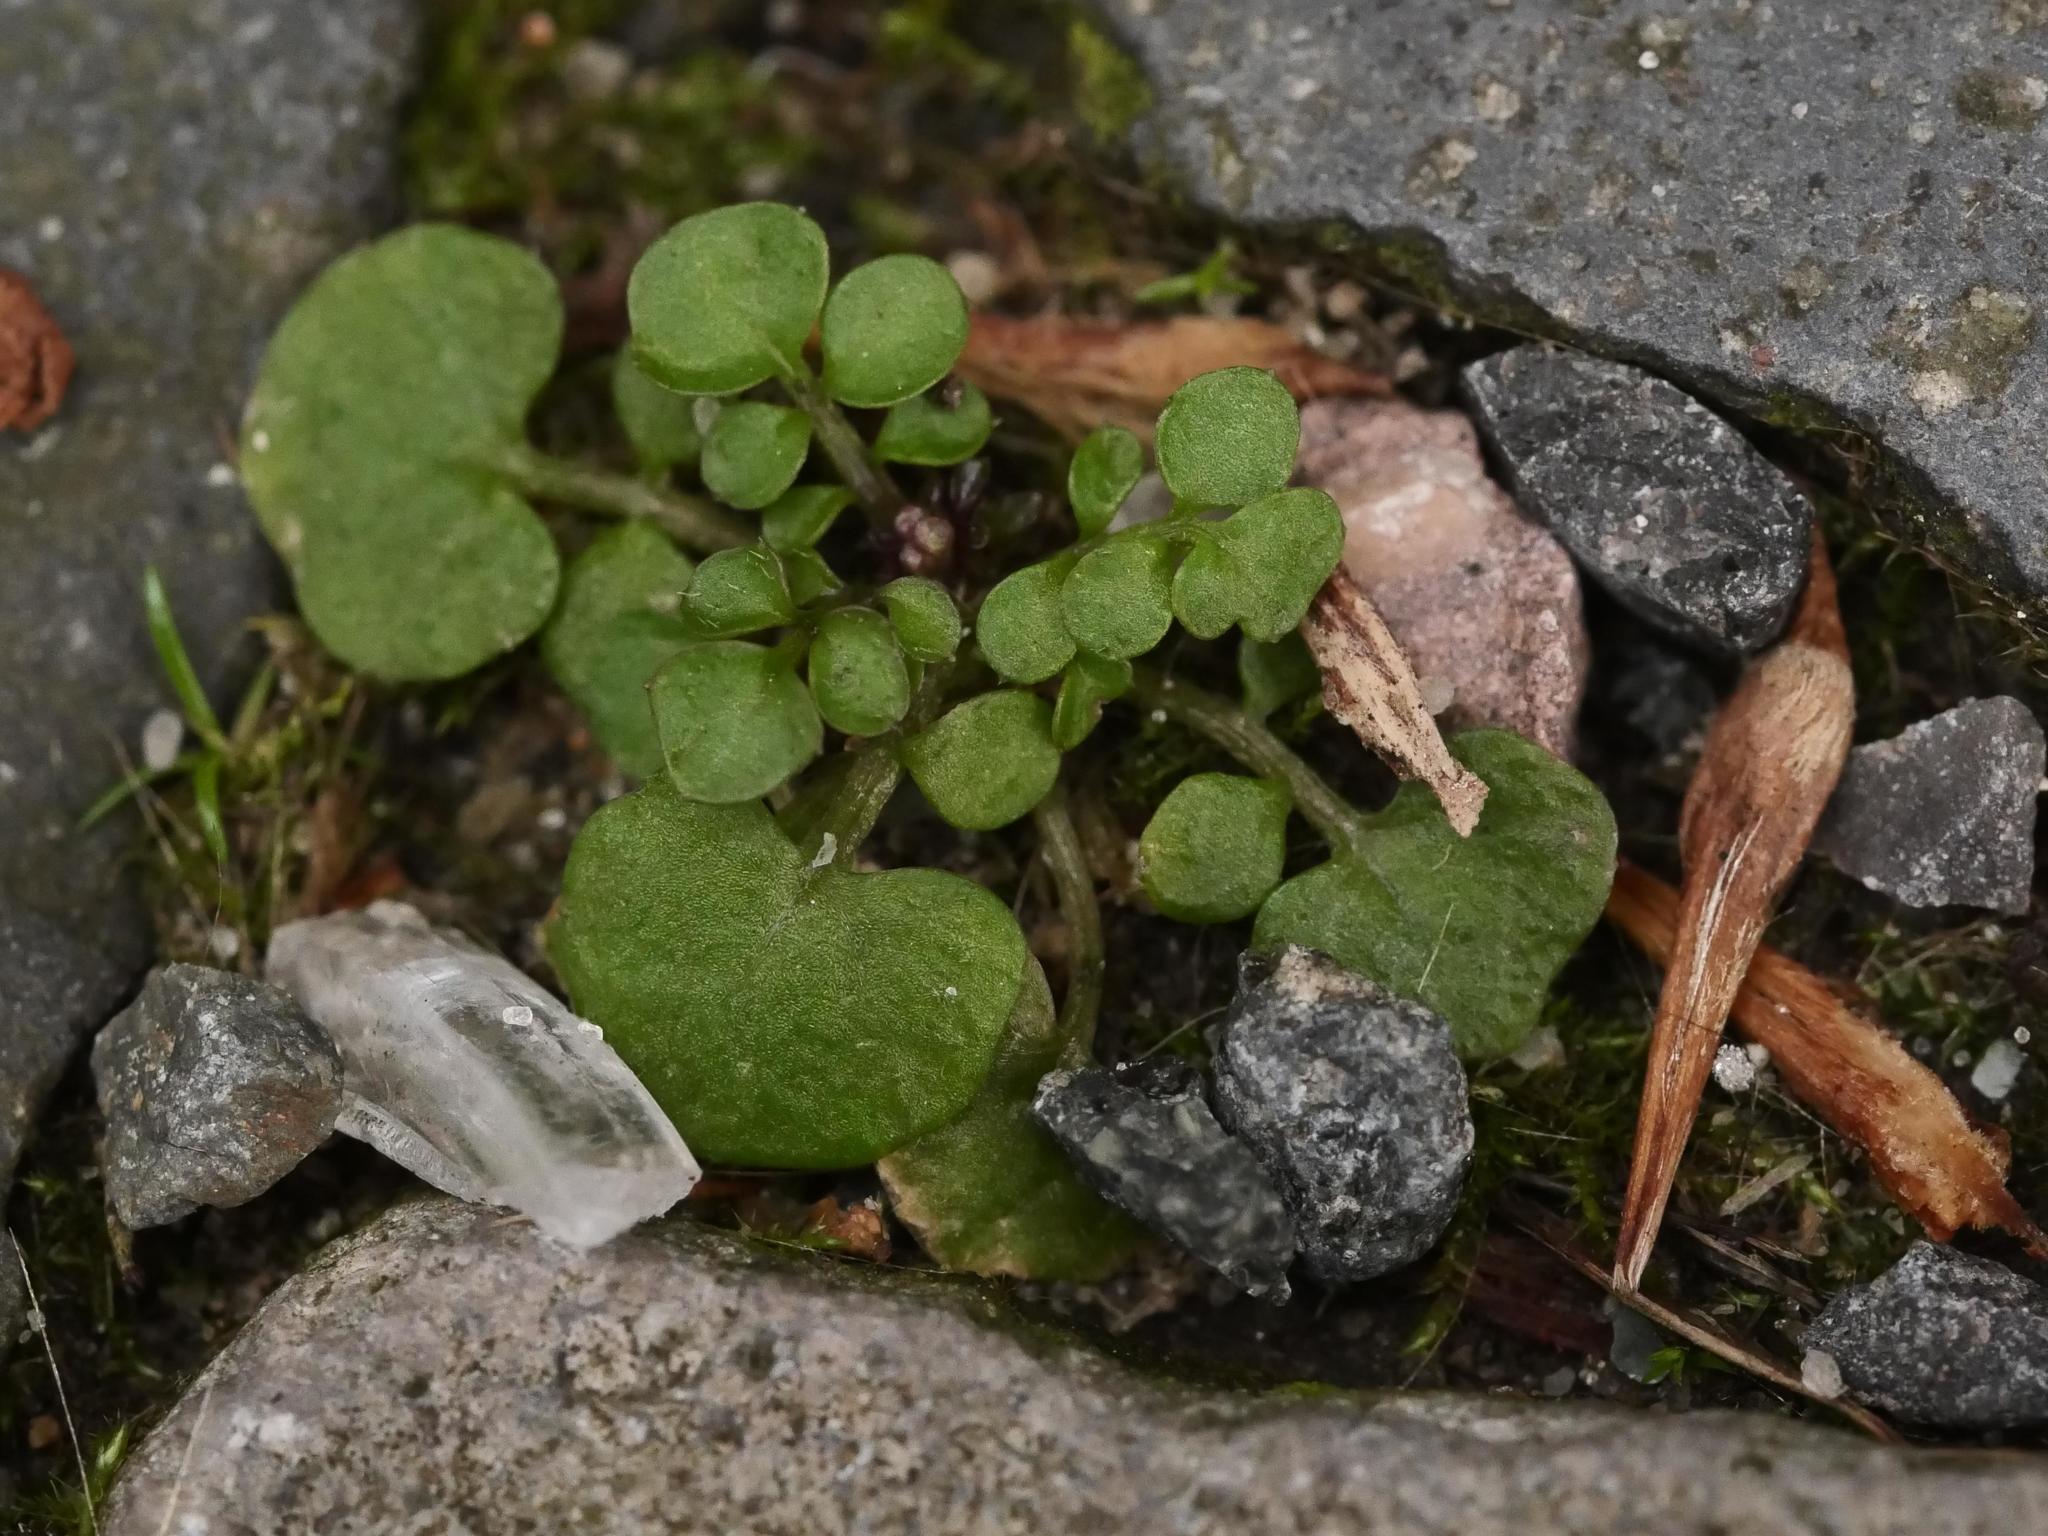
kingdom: Plantae
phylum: Tracheophyta
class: Magnoliopsida
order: Brassicales
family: Brassicaceae
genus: Cardamine
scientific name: Cardamine hirsuta
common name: Hairy bittercress
